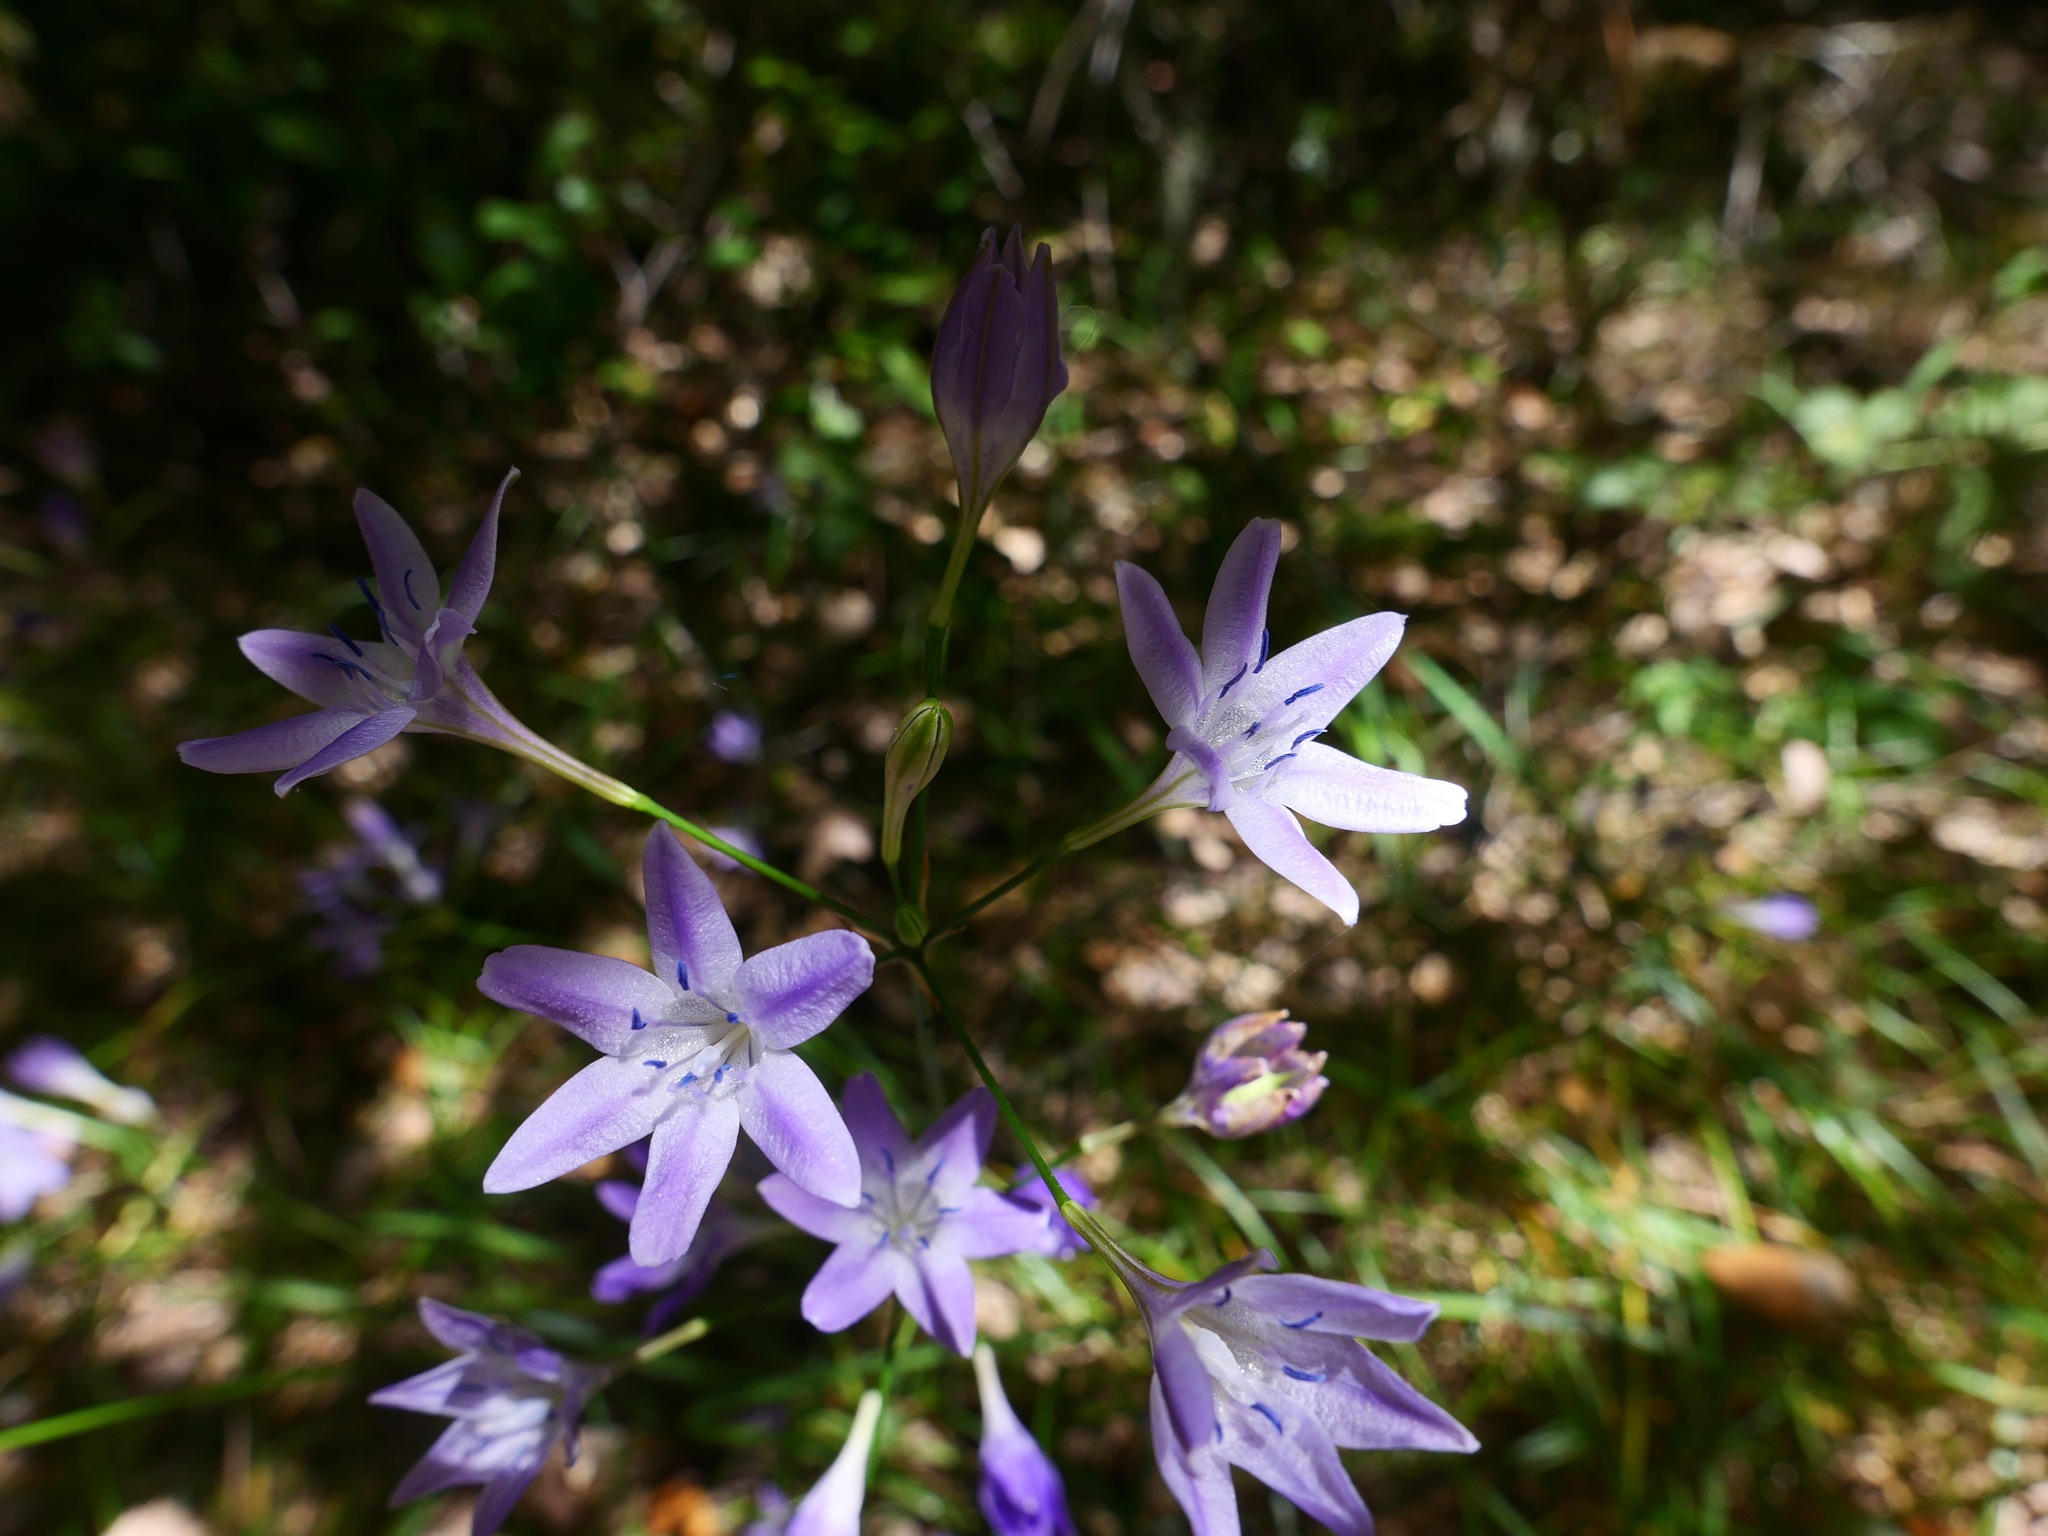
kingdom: Plantae
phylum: Tracheophyta
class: Liliopsida
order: Asparagales
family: Asparagaceae
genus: Triteleia
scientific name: Triteleia bridgesii
